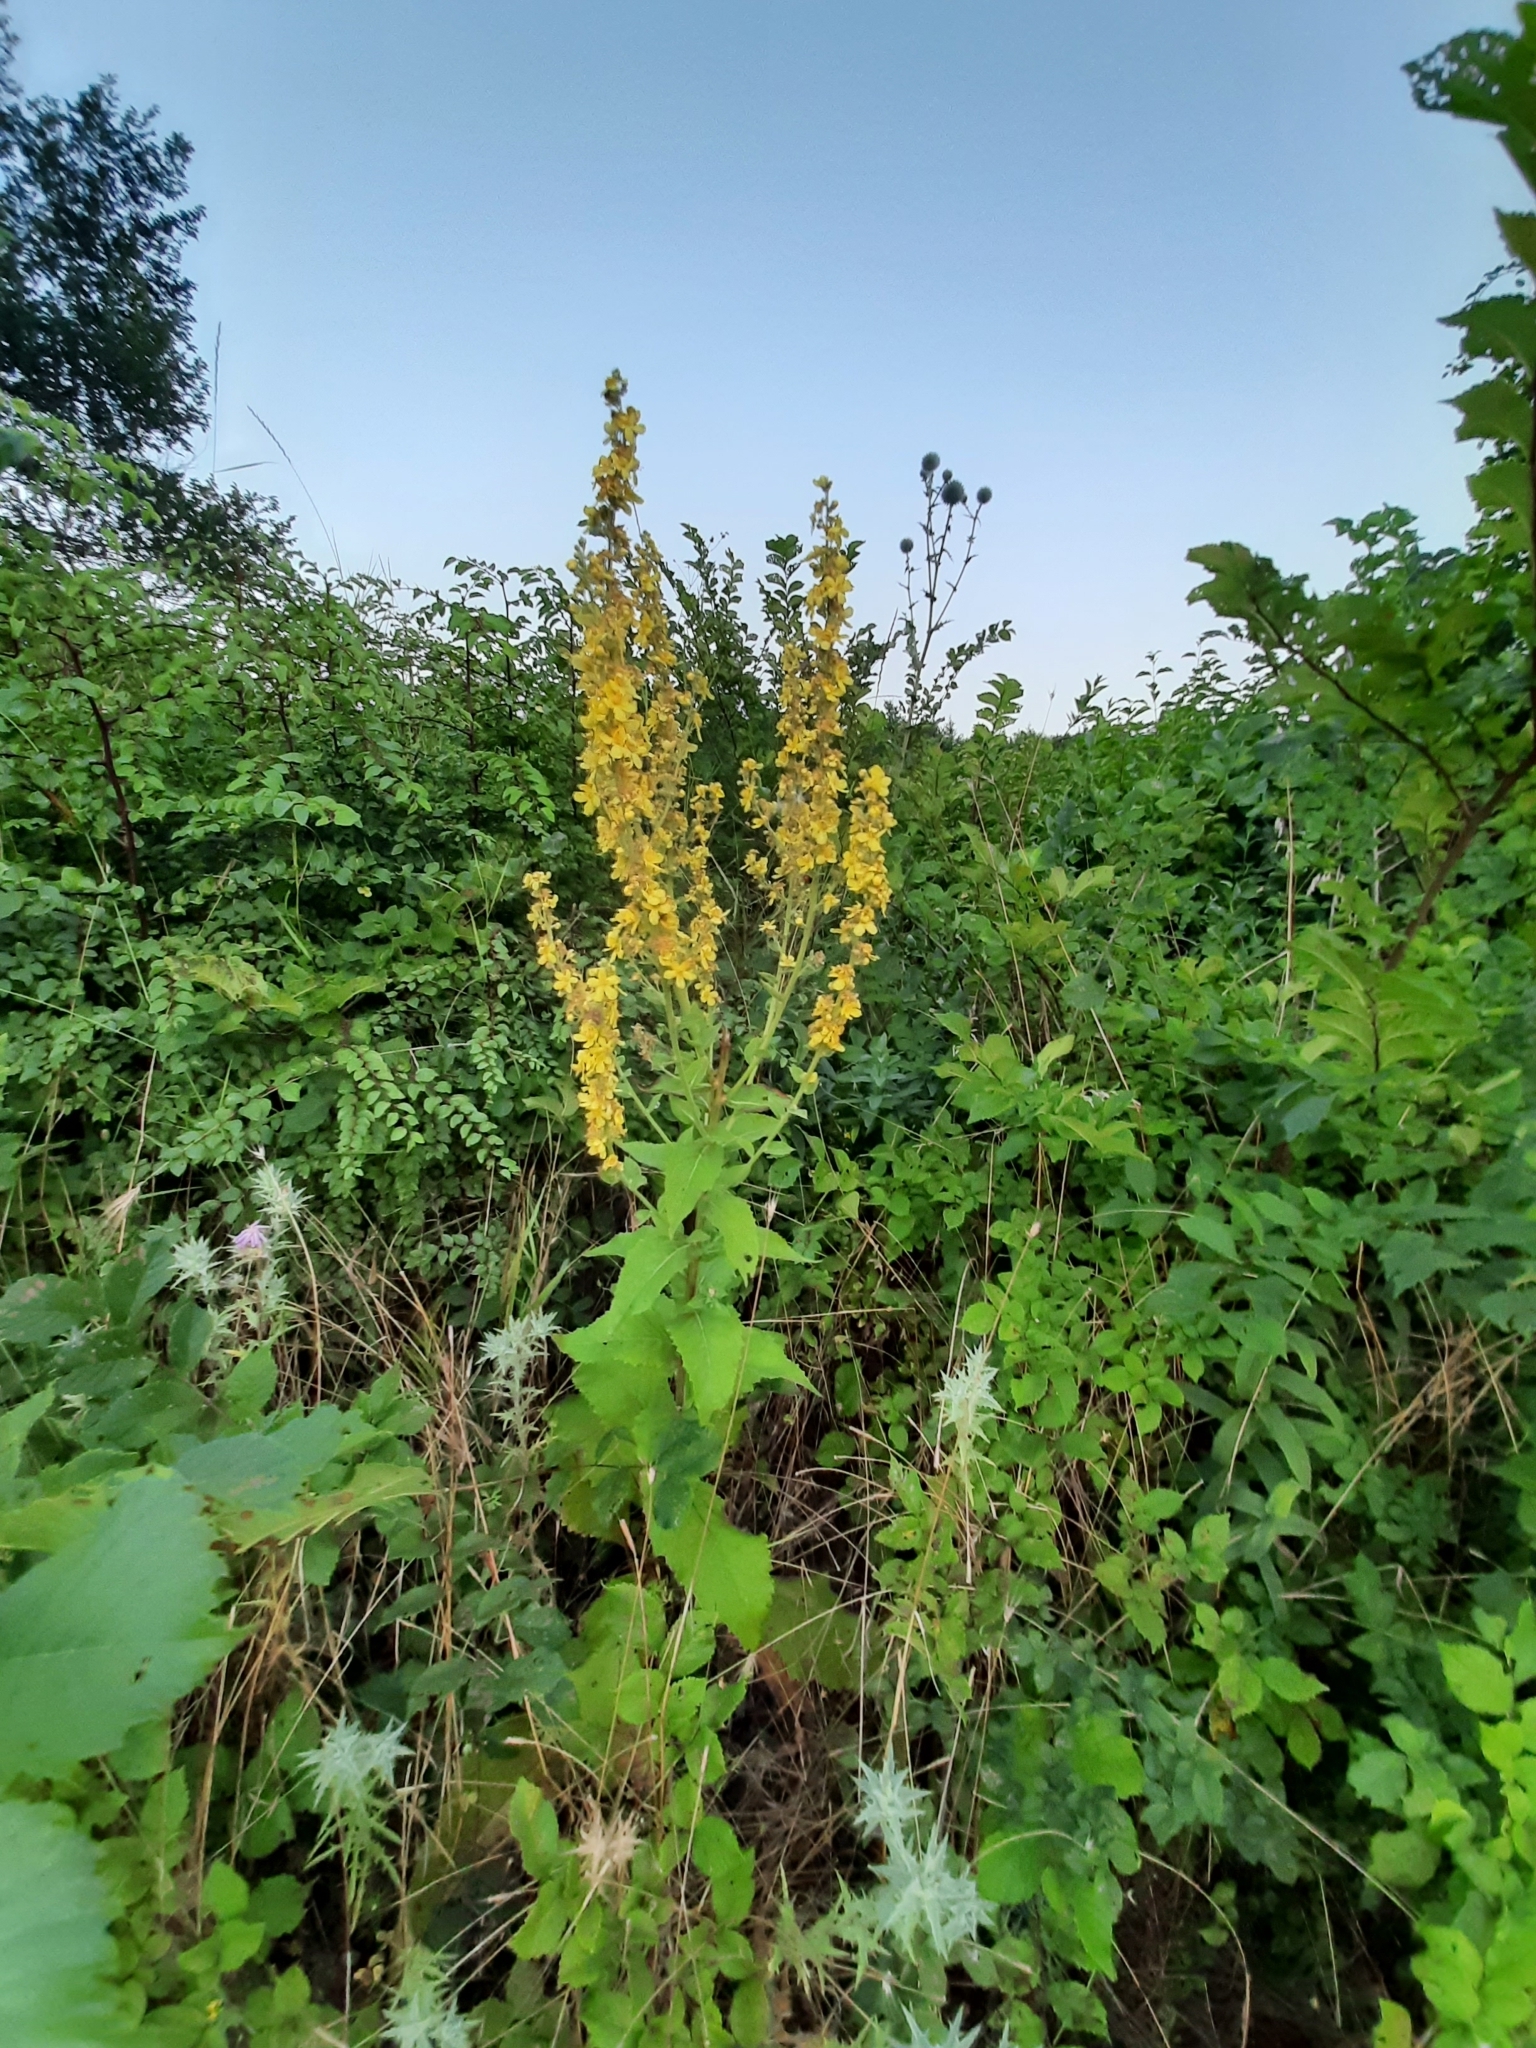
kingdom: Plantae
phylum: Tracheophyta
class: Magnoliopsida
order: Lamiales
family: Scrophulariaceae
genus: Verbascum
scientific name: Verbascum lychnitis
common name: White mullein
